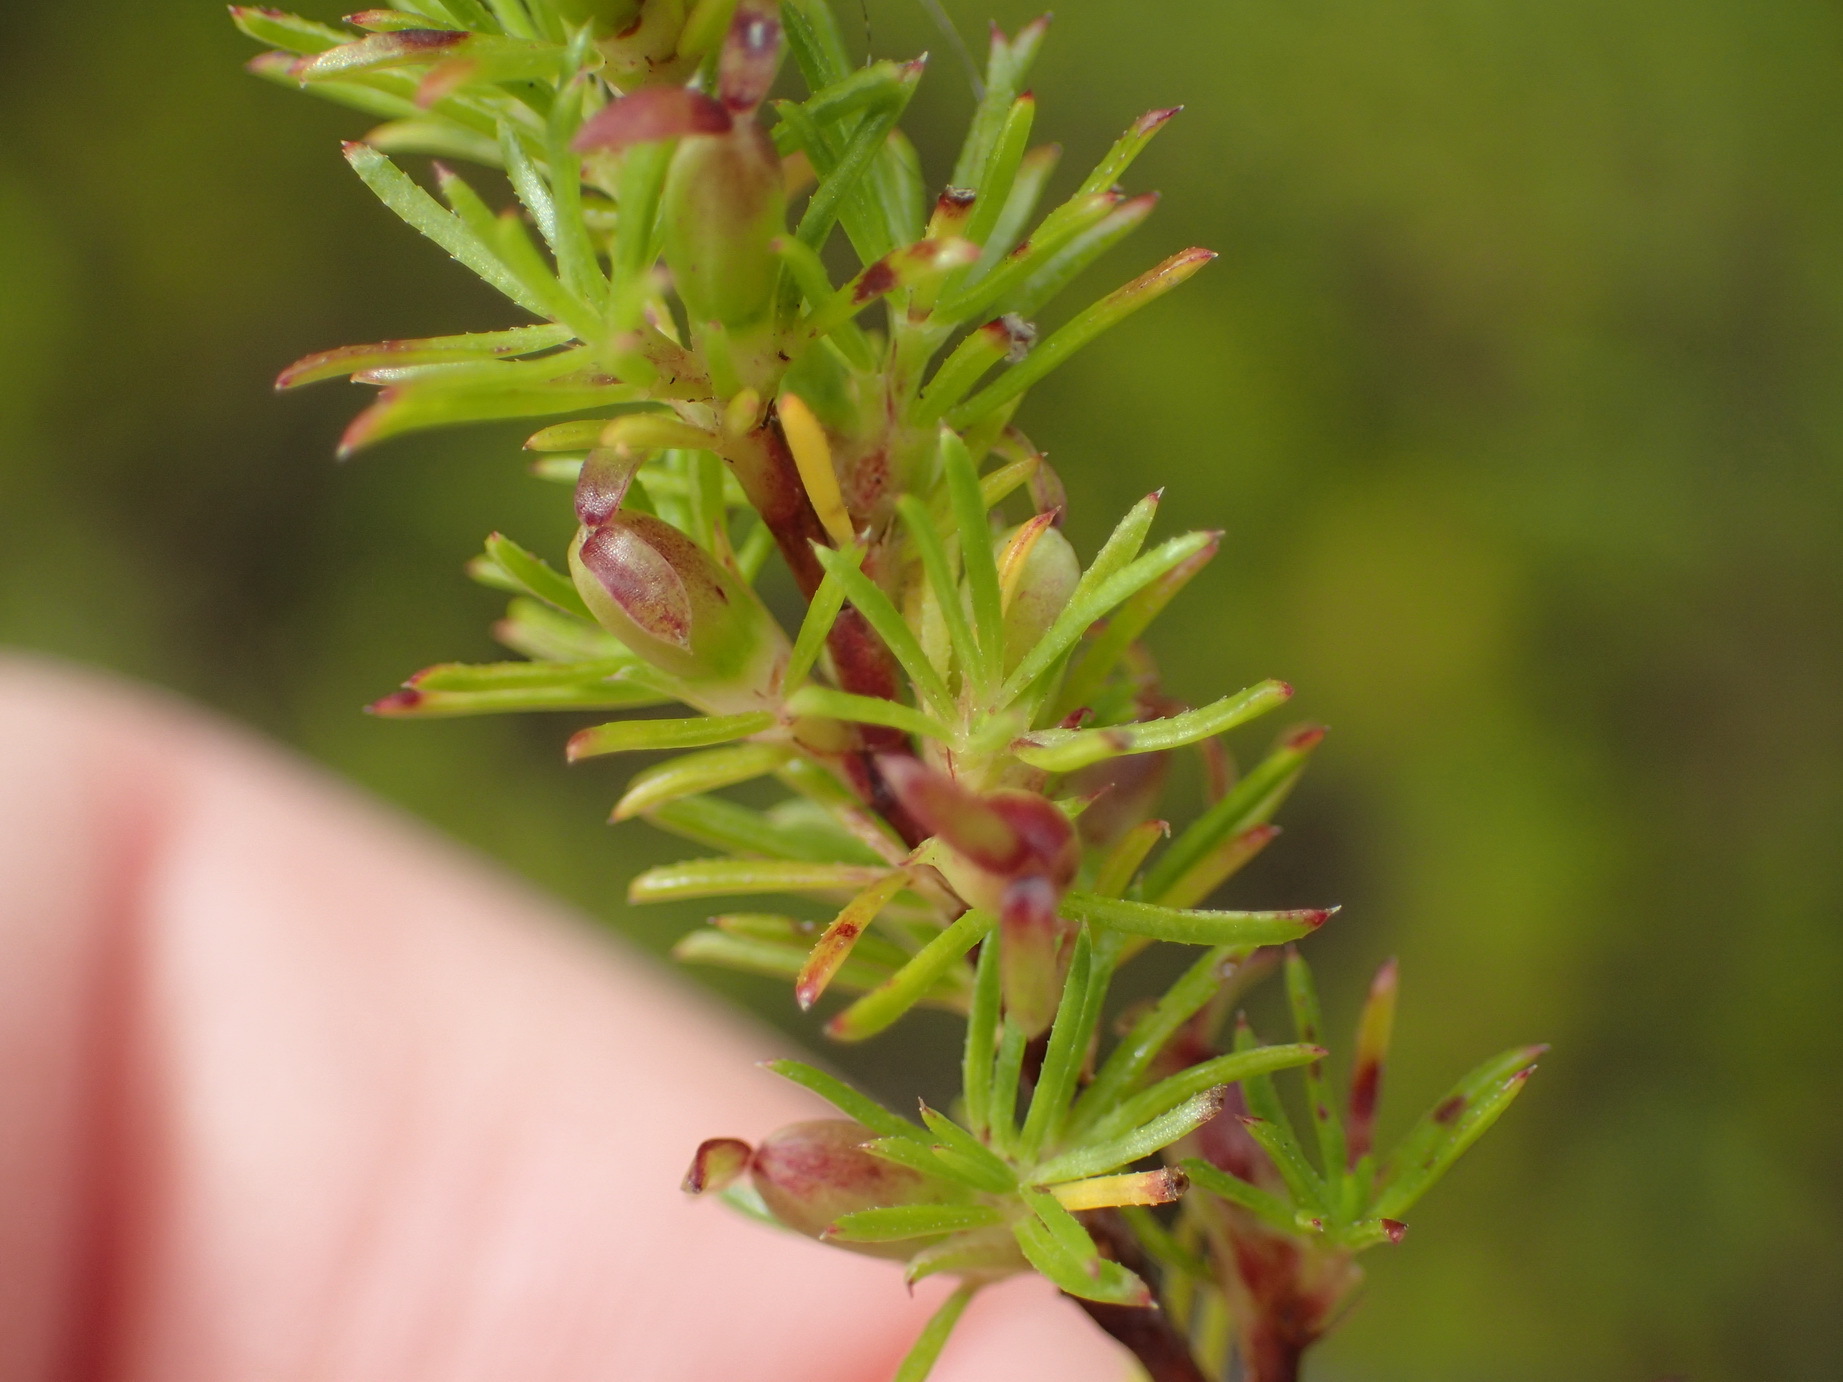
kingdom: Plantae
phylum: Tracheophyta
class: Magnoliopsida
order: Rosales
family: Rosaceae
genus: Cliffortia
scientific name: Cliffortia filifolia
